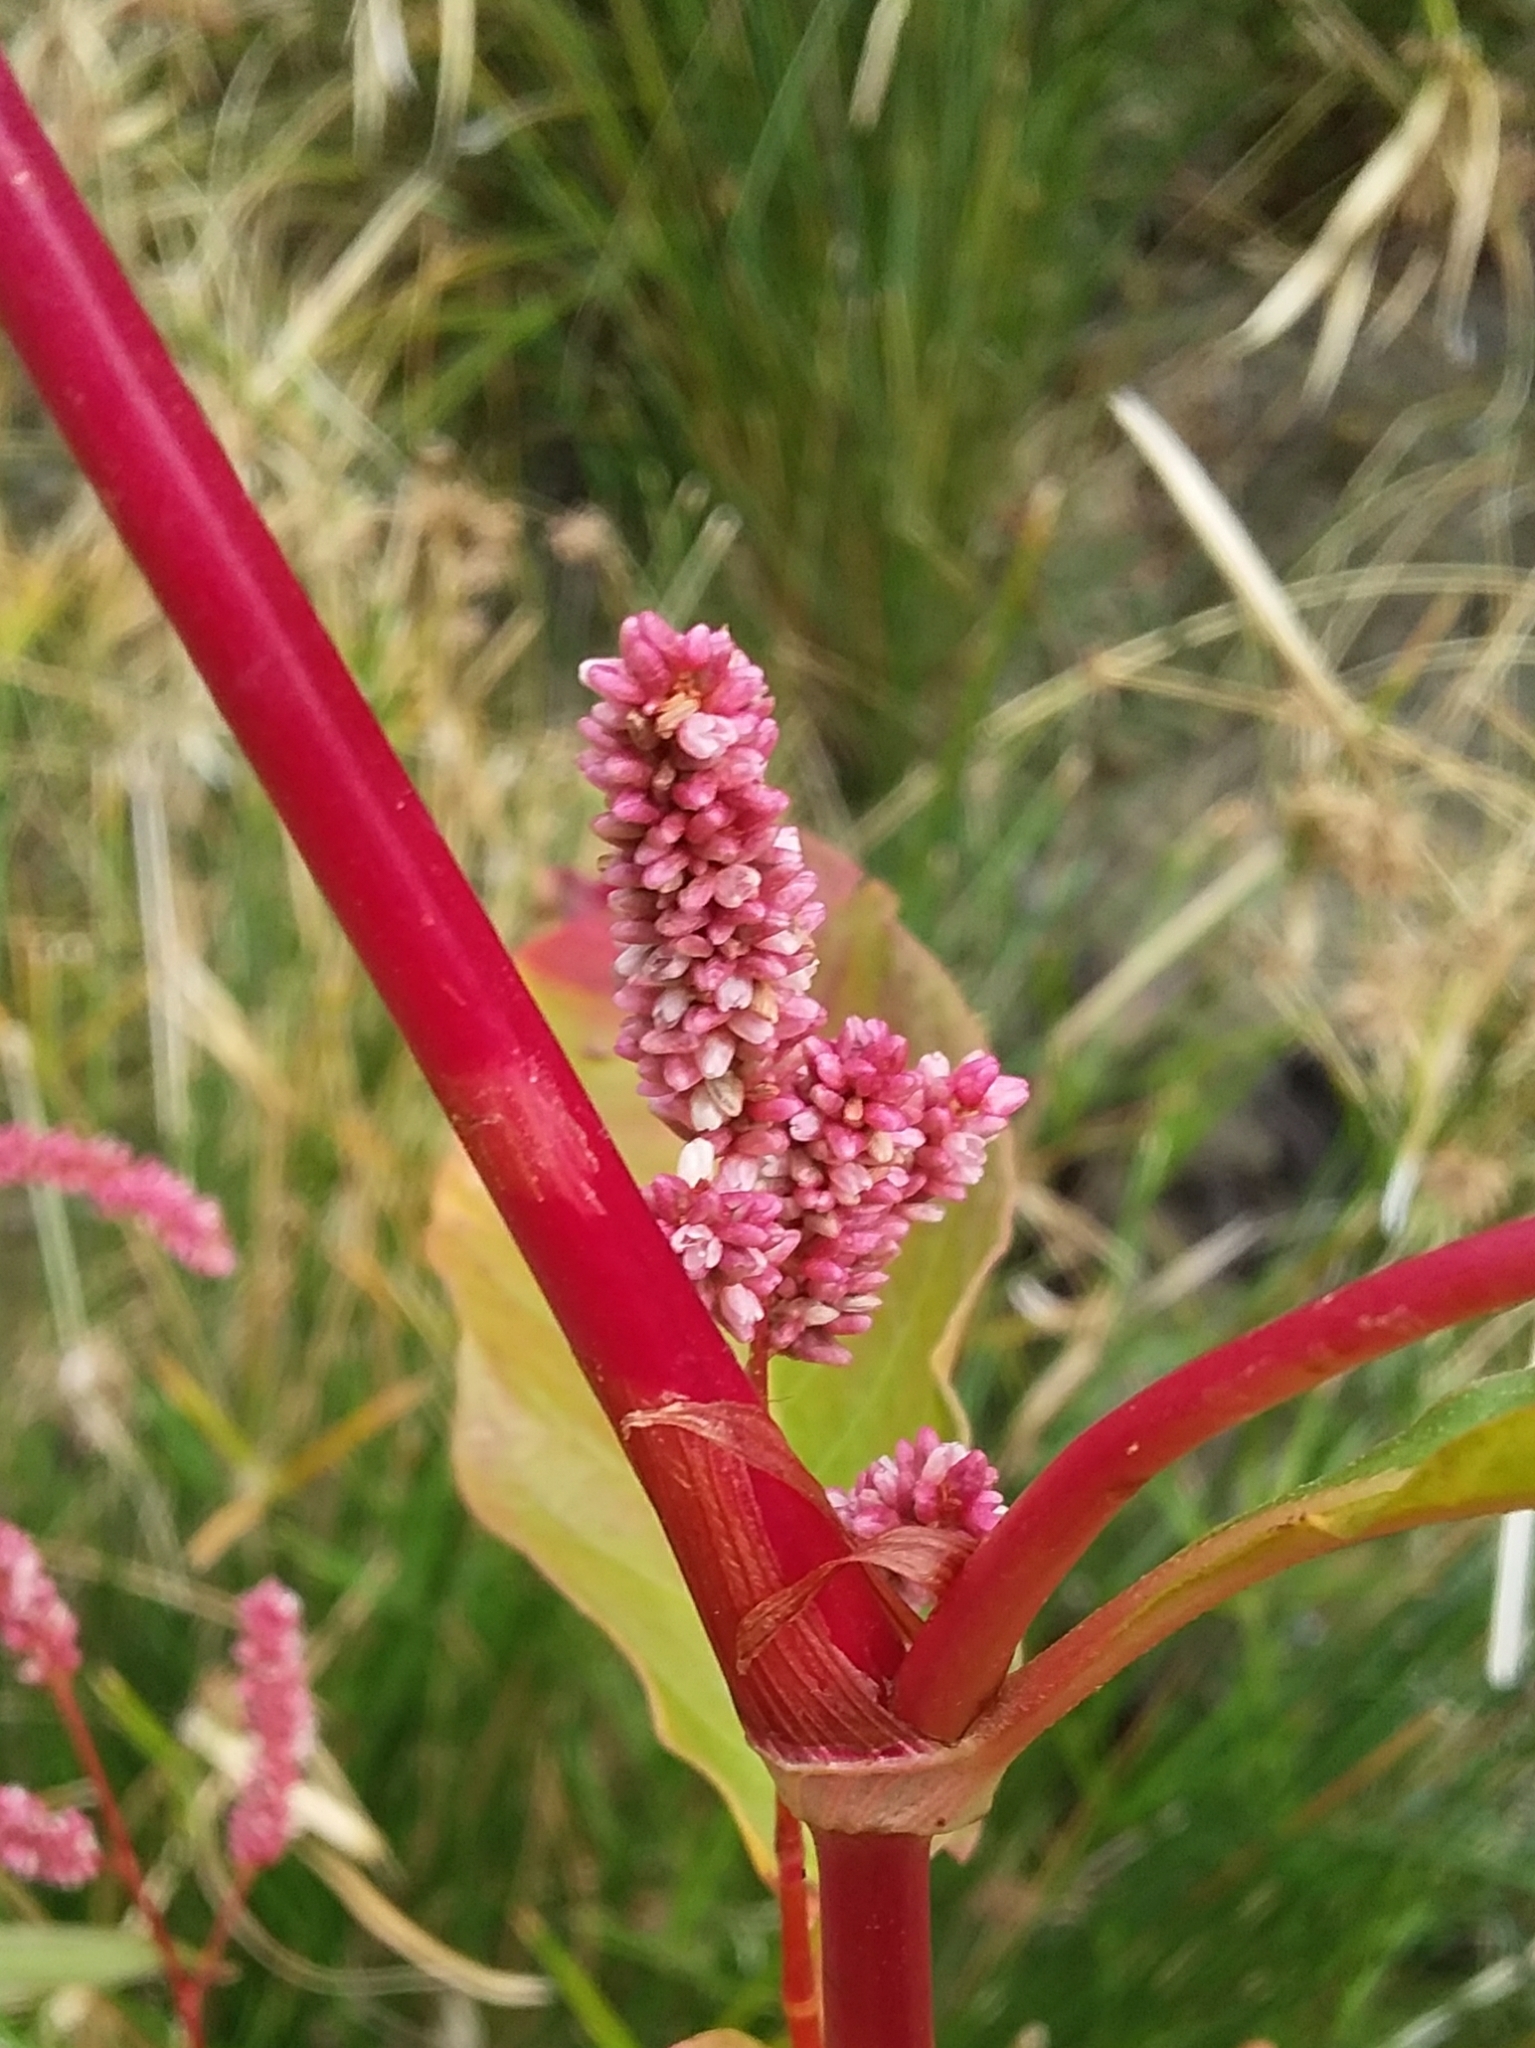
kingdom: Plantae
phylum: Tracheophyta
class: Magnoliopsida
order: Caryophyllales
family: Polygonaceae
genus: Persicaria
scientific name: Persicaria lapathifolia
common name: Curlytop knotweed
